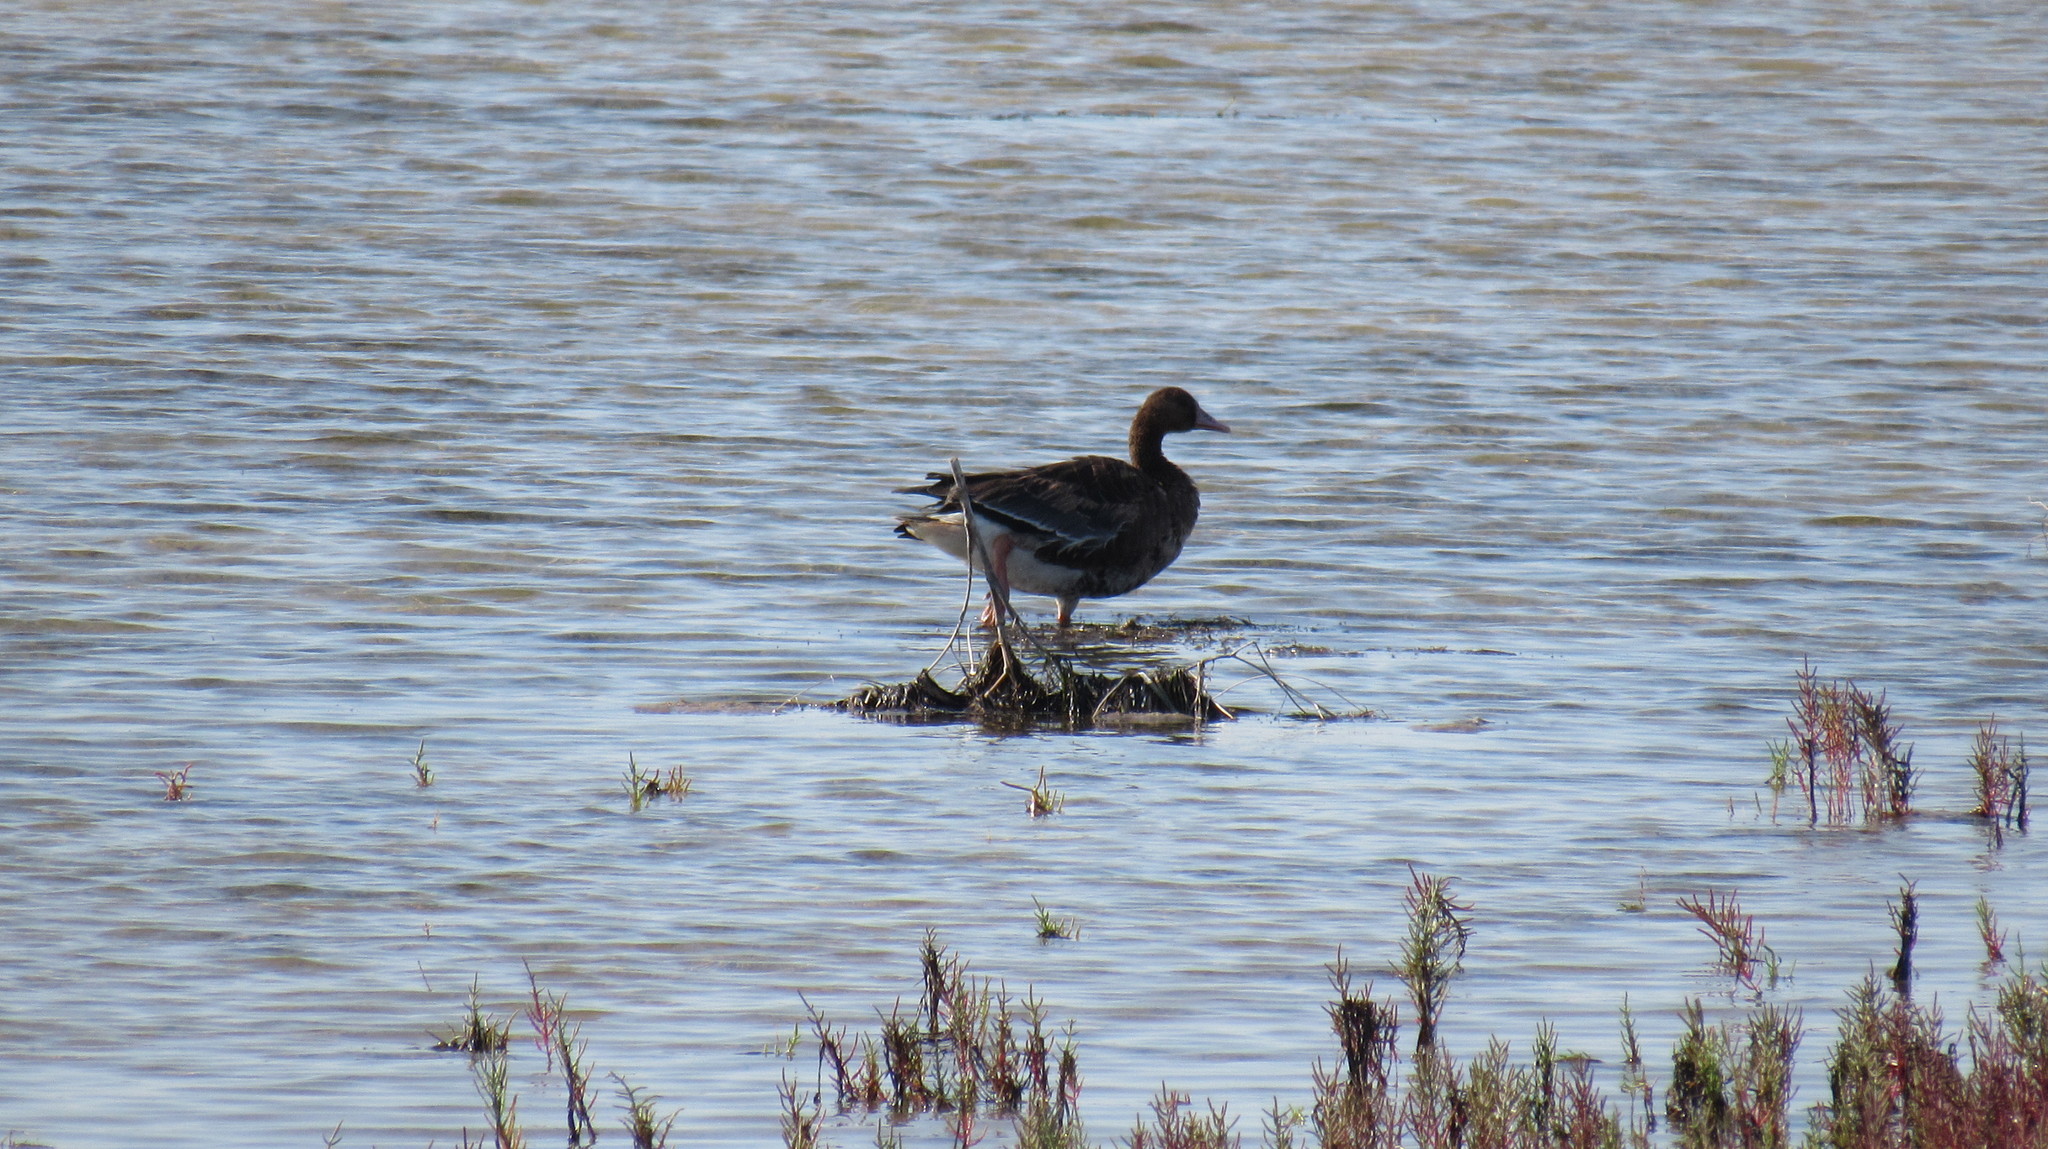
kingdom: Animalia
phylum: Chordata
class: Aves
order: Anseriformes
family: Anatidae
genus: Anser
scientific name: Anser albifrons
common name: Greater white-fronted goose
